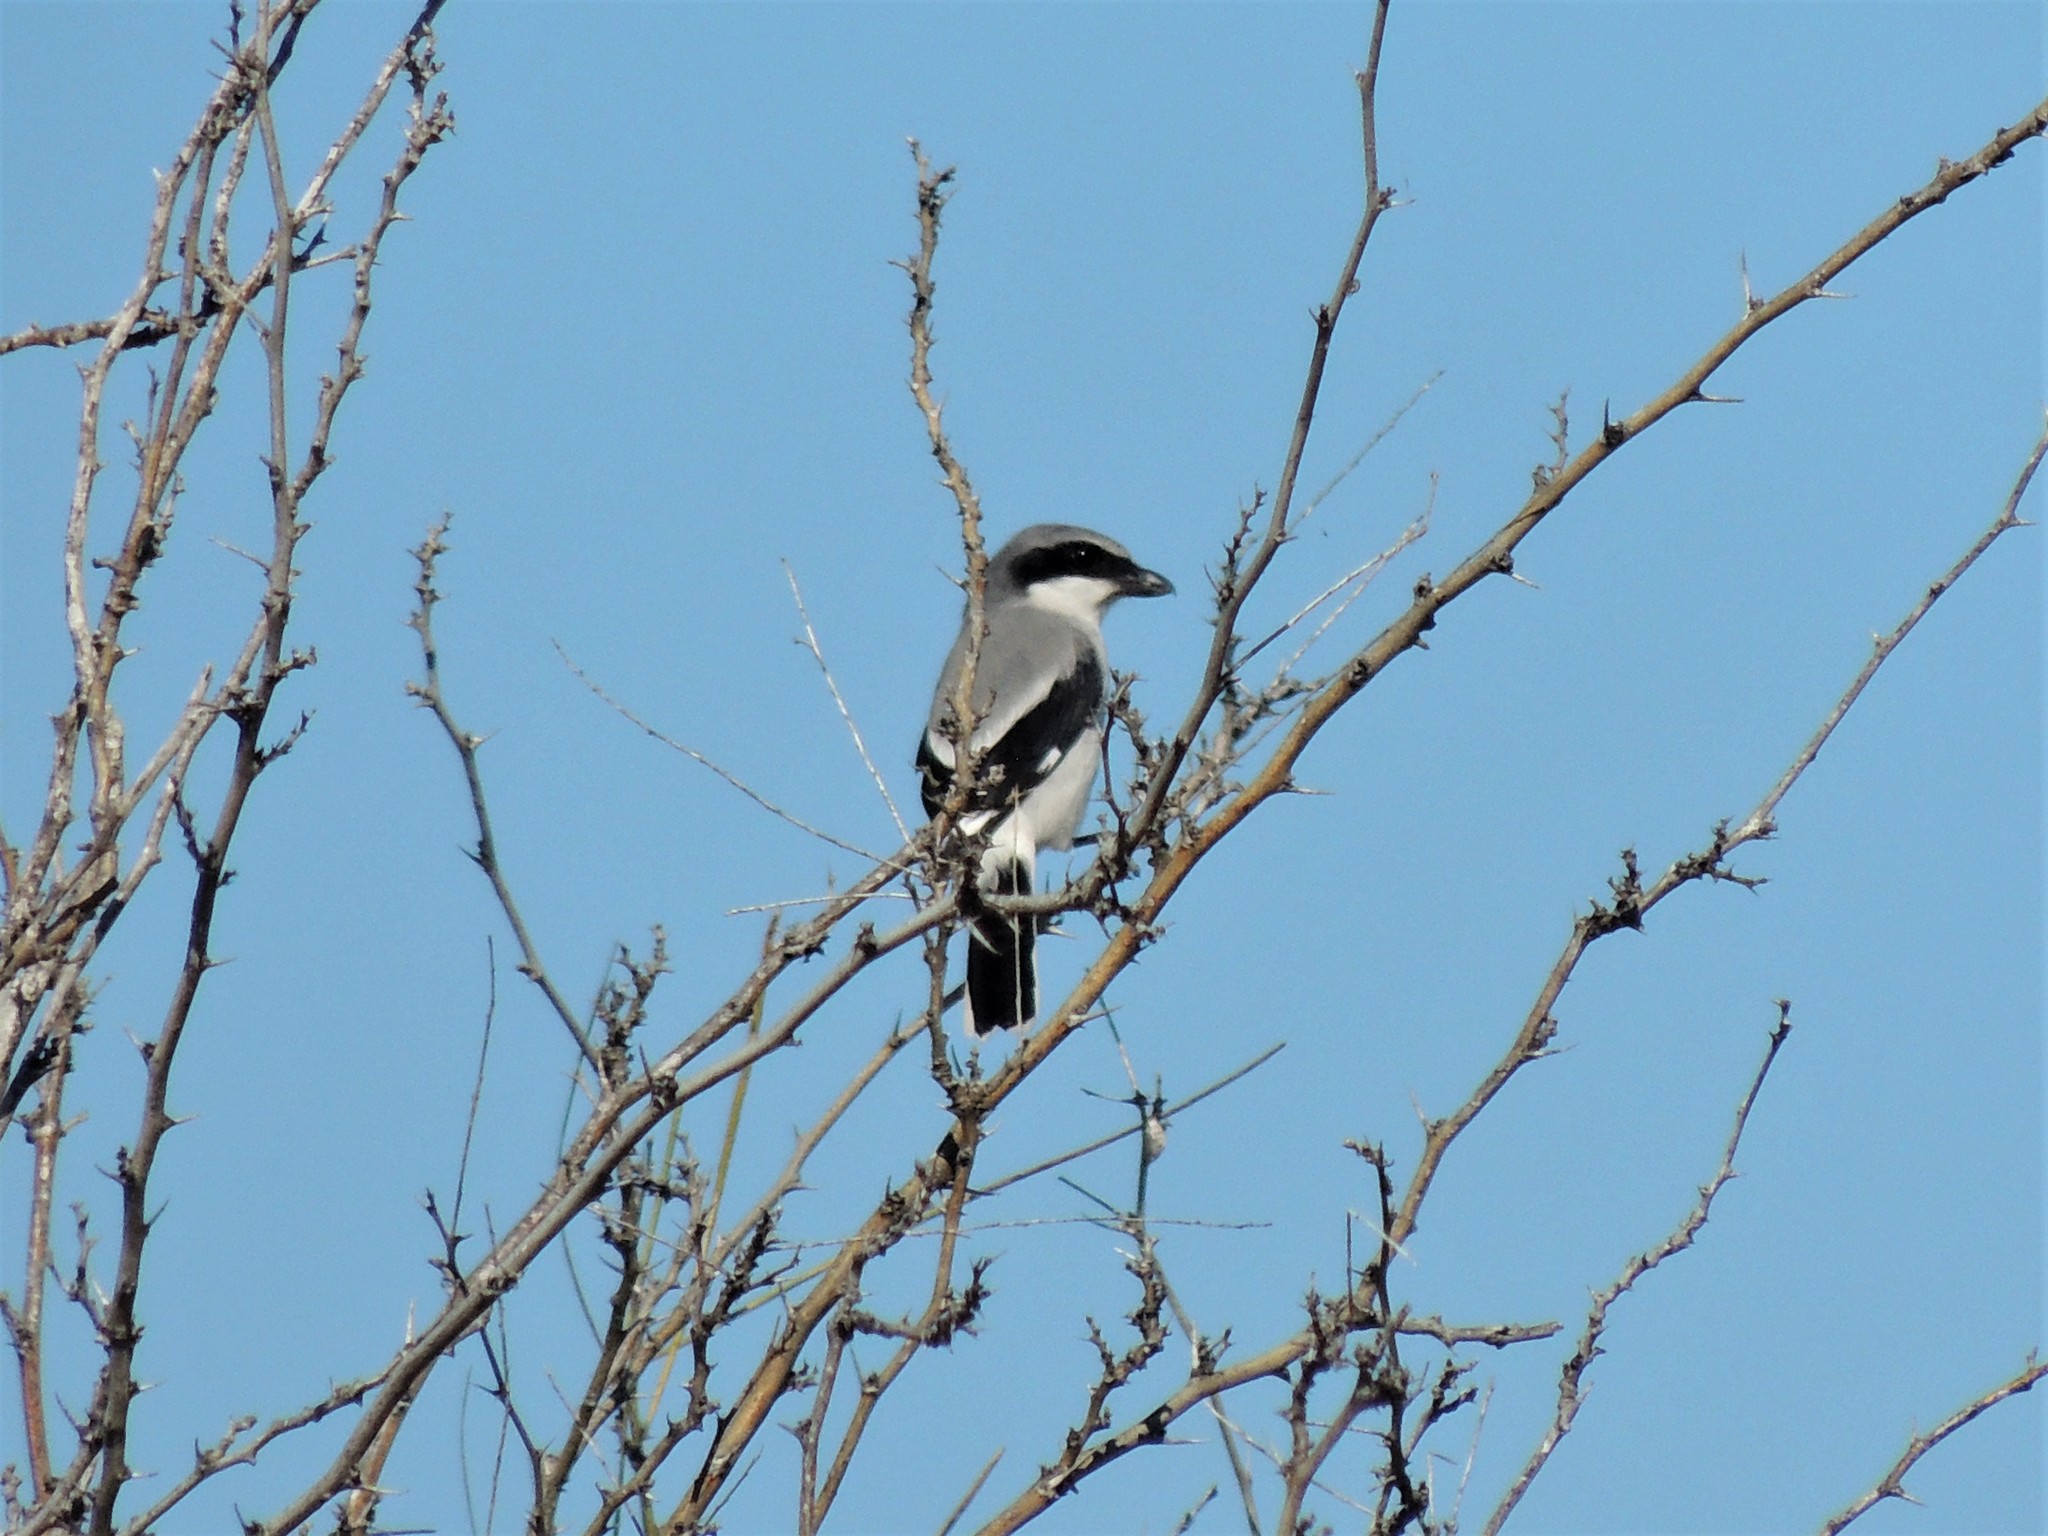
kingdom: Animalia
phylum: Chordata
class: Aves
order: Passeriformes
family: Laniidae
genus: Lanius
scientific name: Lanius ludovicianus
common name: Loggerhead shrike
